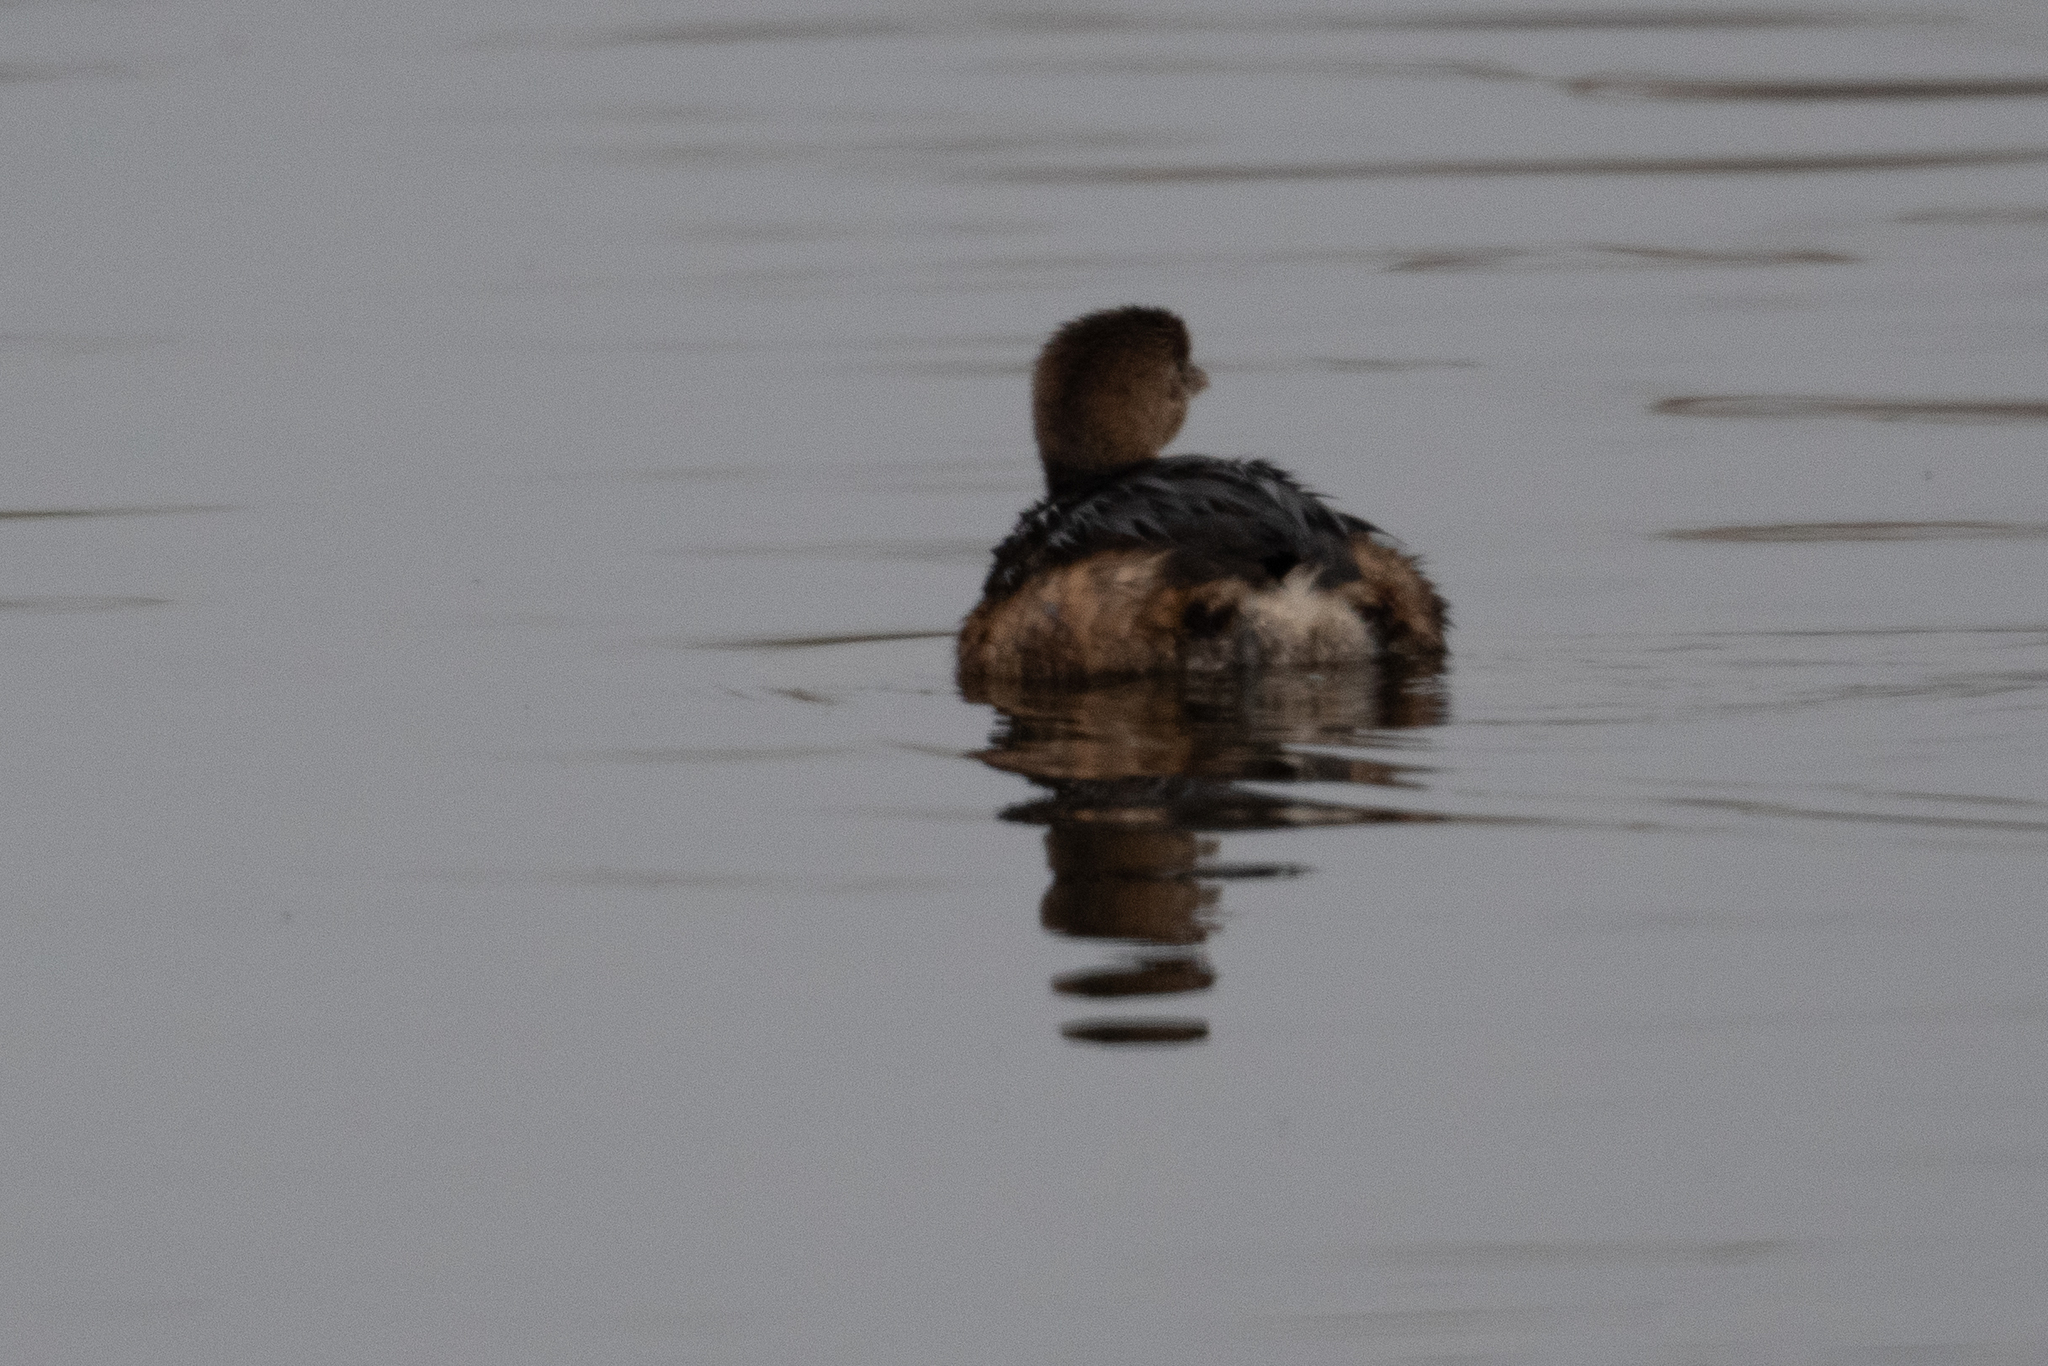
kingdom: Animalia
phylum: Chordata
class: Aves
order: Podicipediformes
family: Podicipedidae
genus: Podilymbus
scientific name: Podilymbus podiceps
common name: Pied-billed grebe
